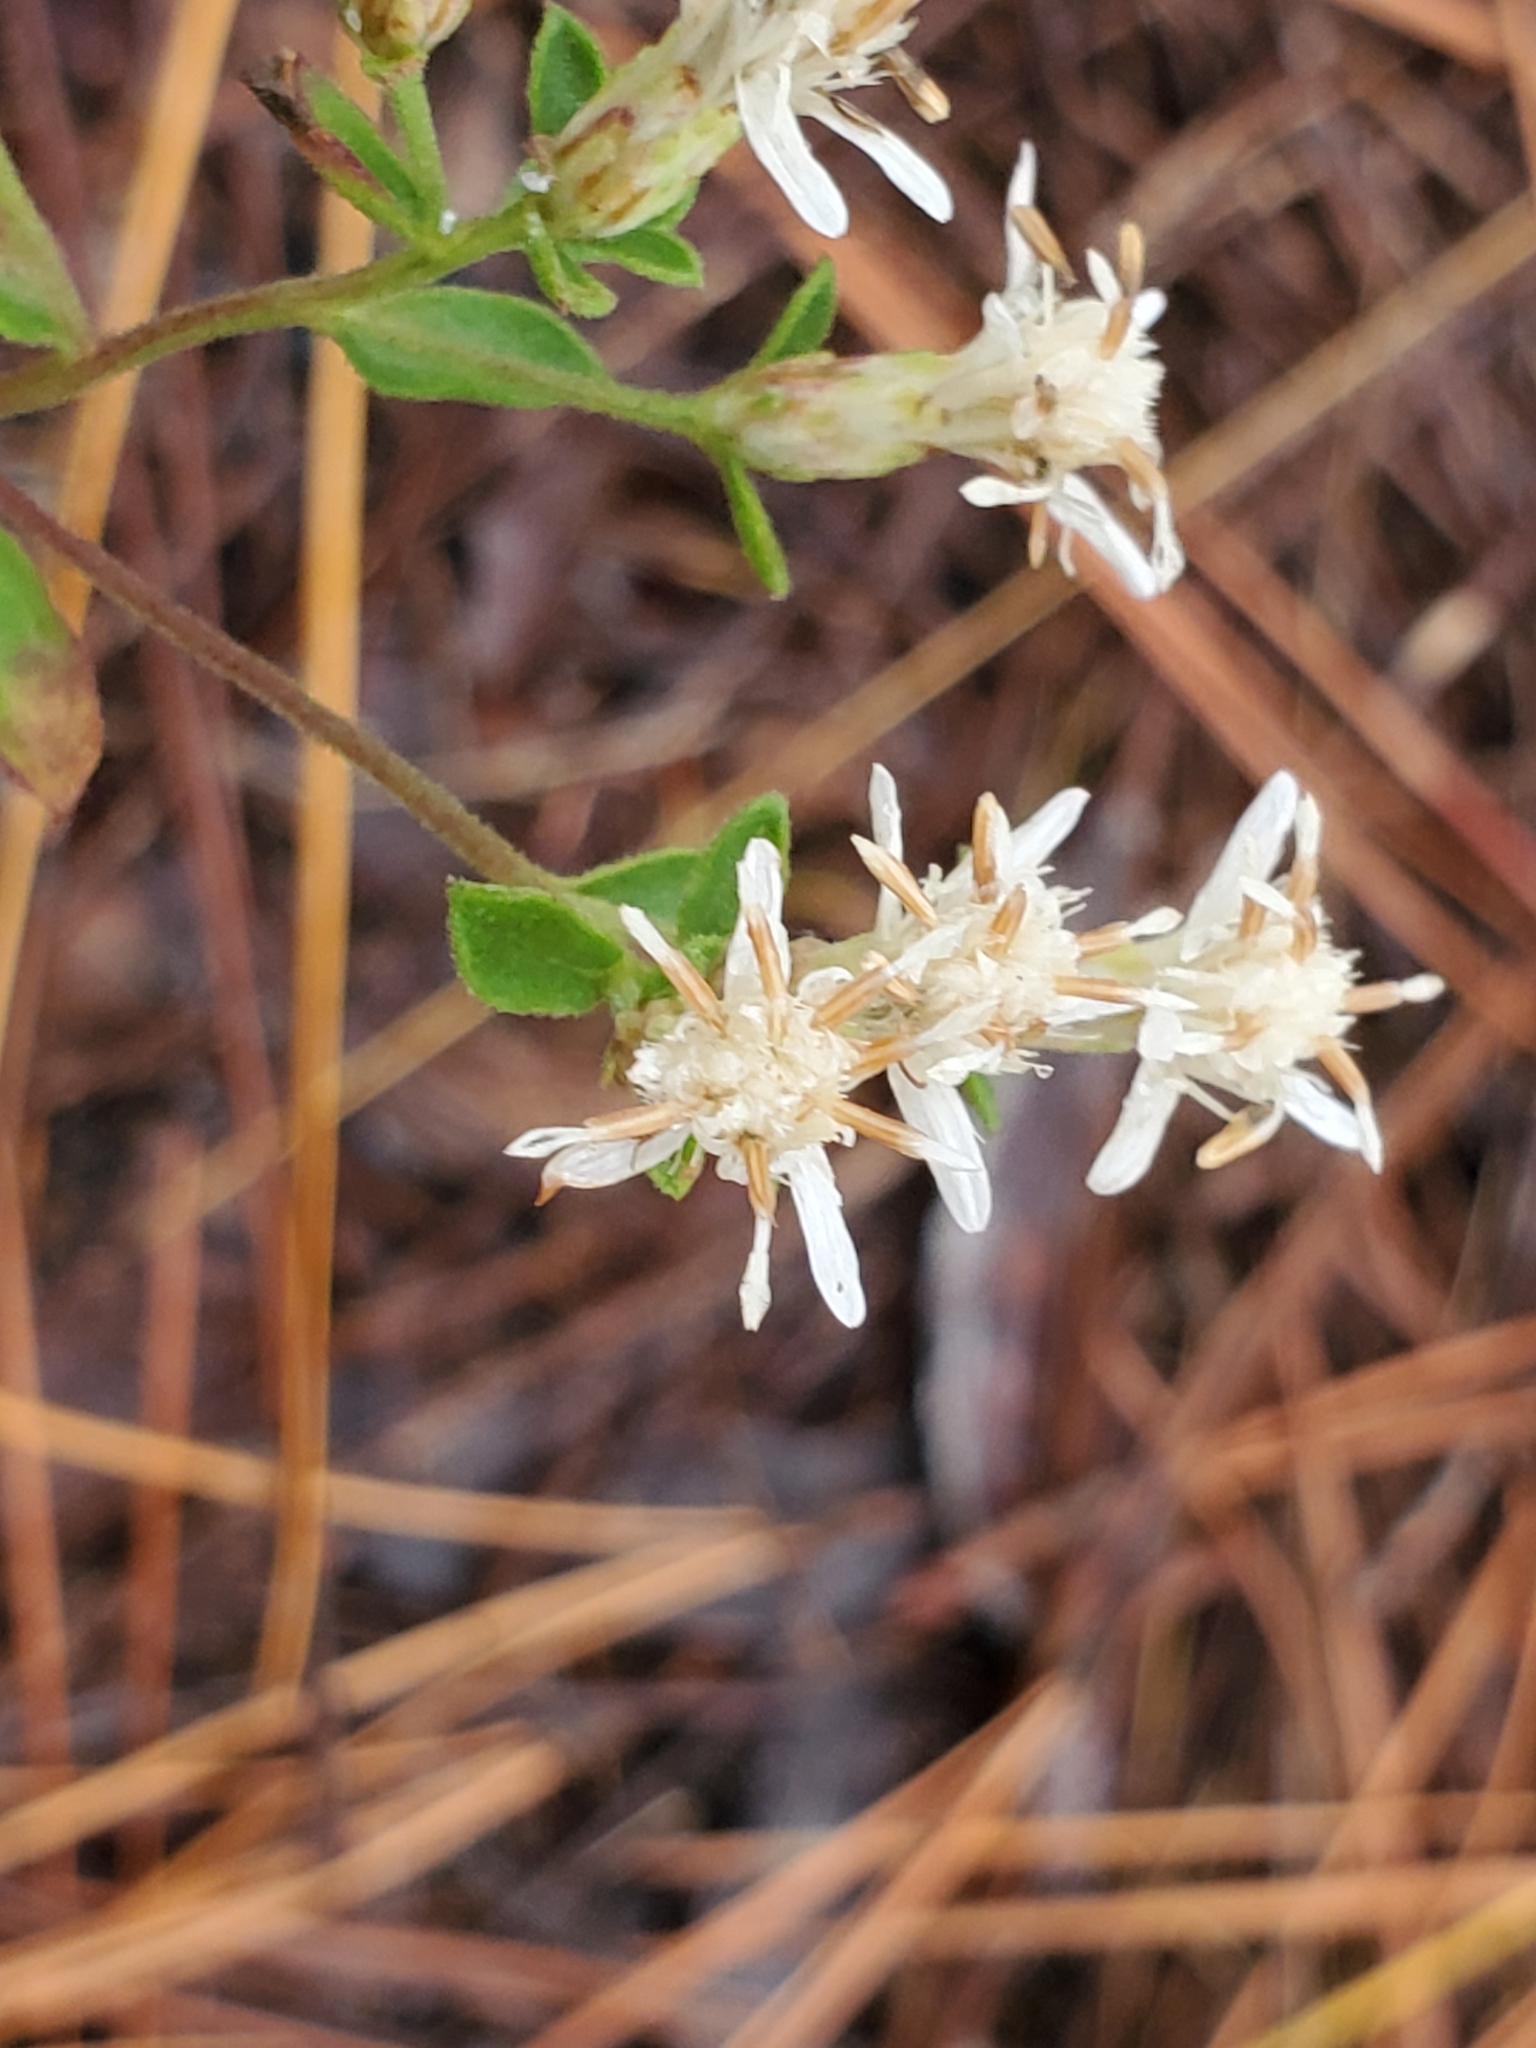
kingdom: Plantae
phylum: Tracheophyta
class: Magnoliopsida
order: Asterales
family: Asteraceae
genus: Sericocarpus
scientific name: Sericocarpus tortifolius
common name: Dixie aster
